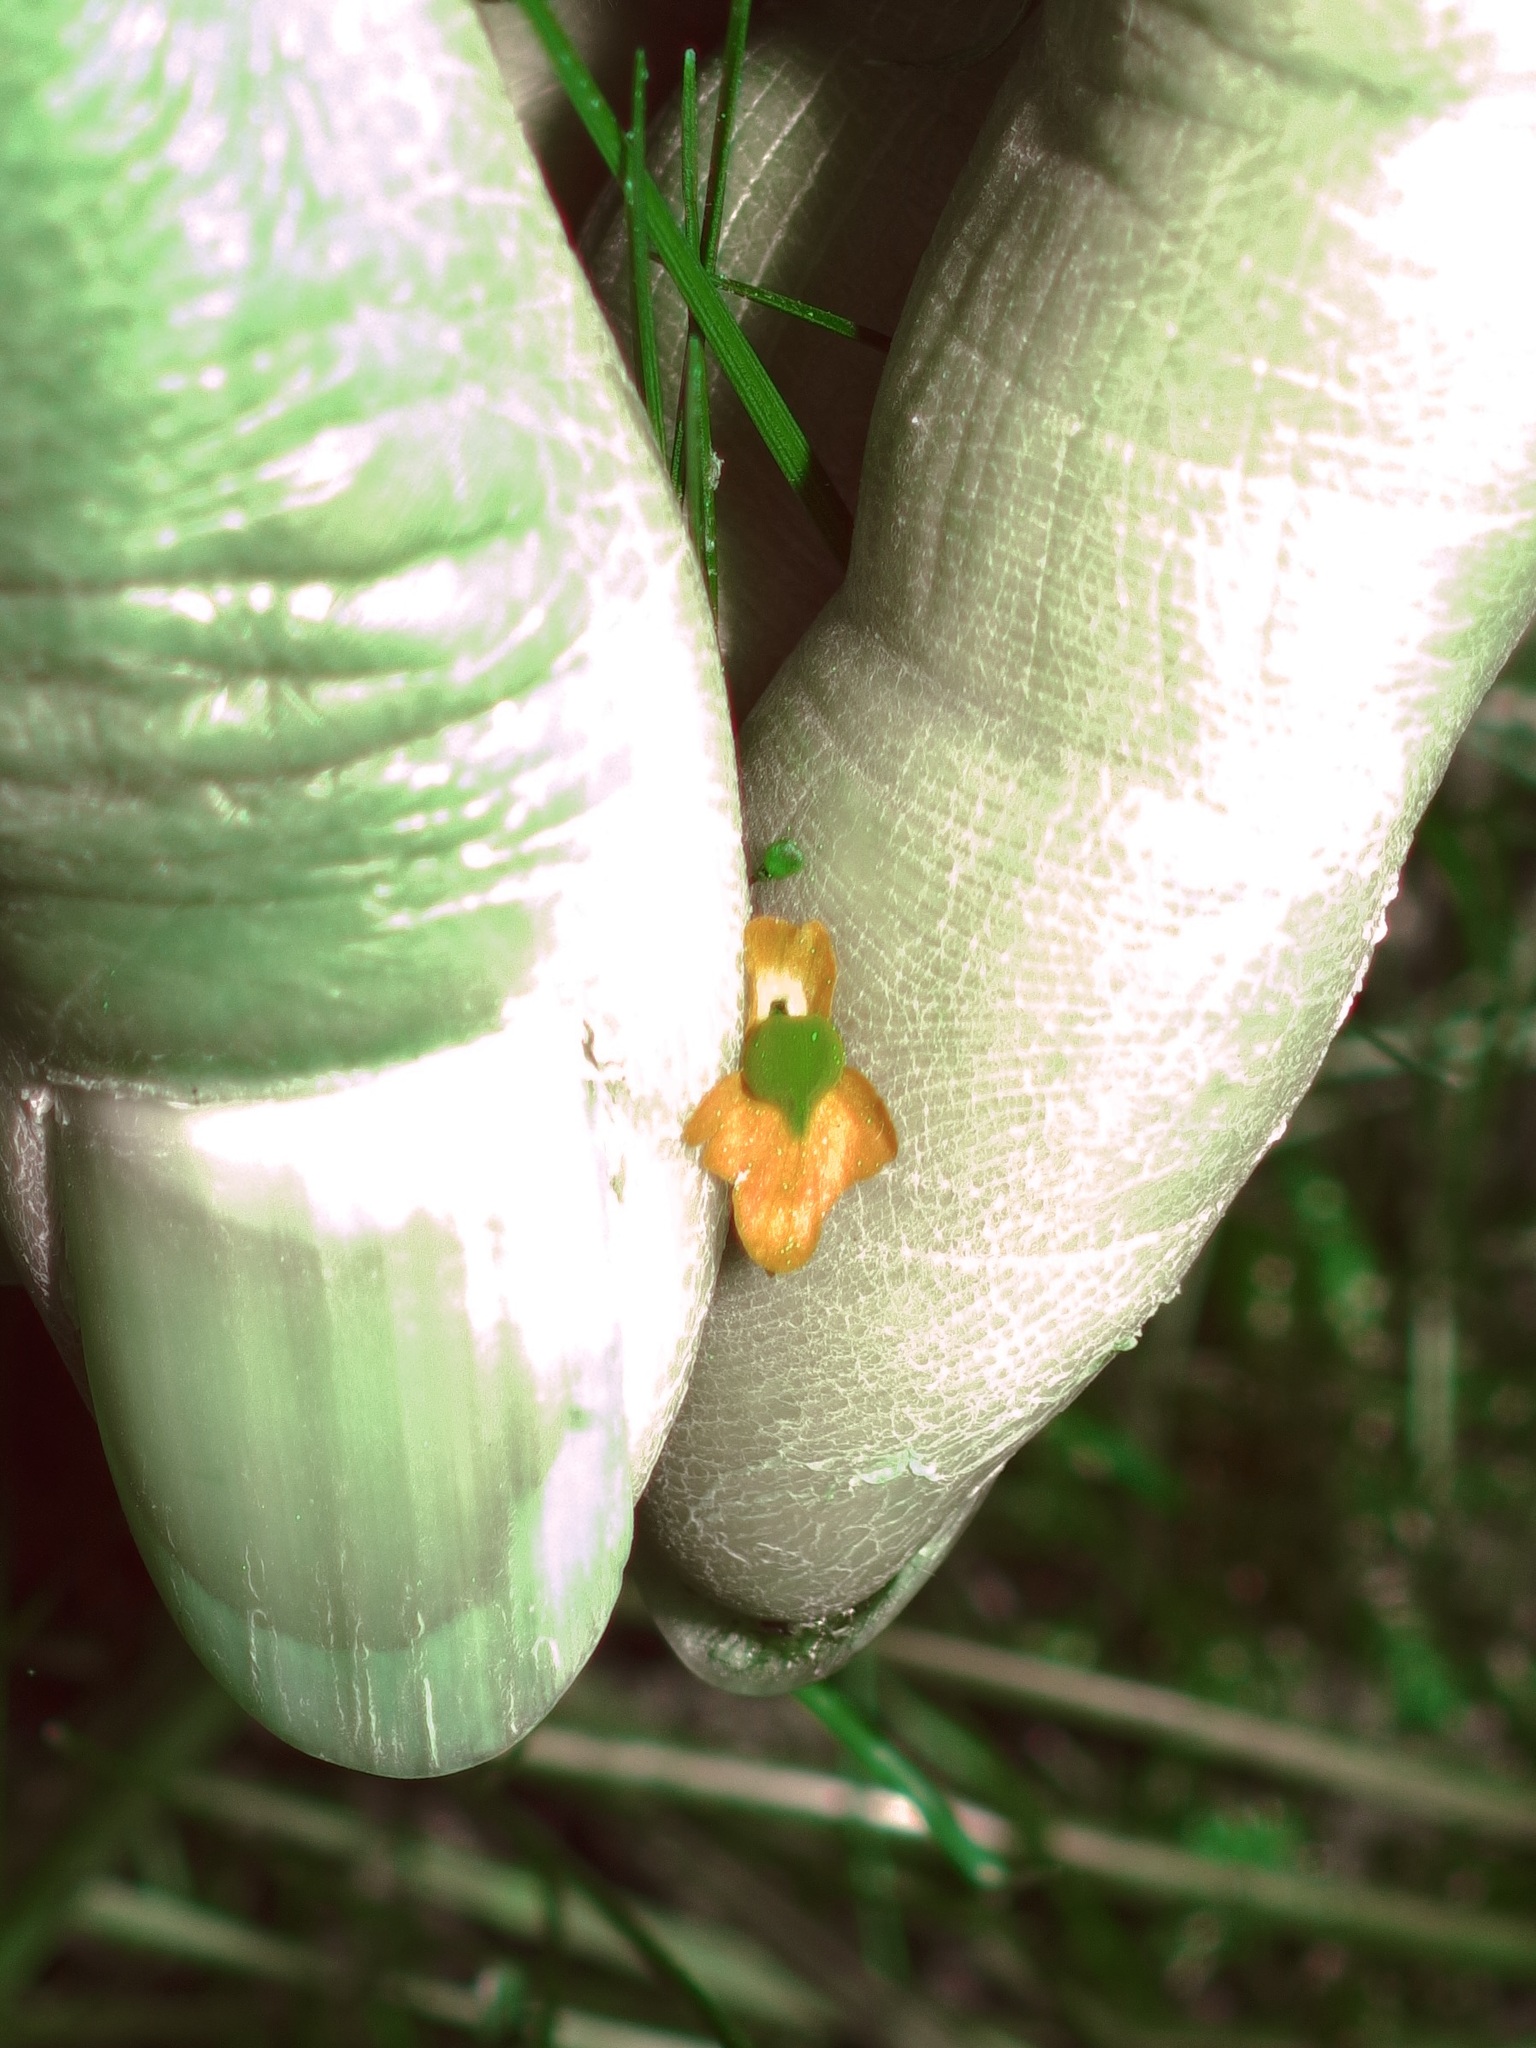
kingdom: Plantae
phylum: Tracheophyta
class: Magnoliopsida
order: Lamiales
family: Lentibulariaceae
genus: Utricularia
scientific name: Utricularia subulata
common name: Tiny bladderwort
